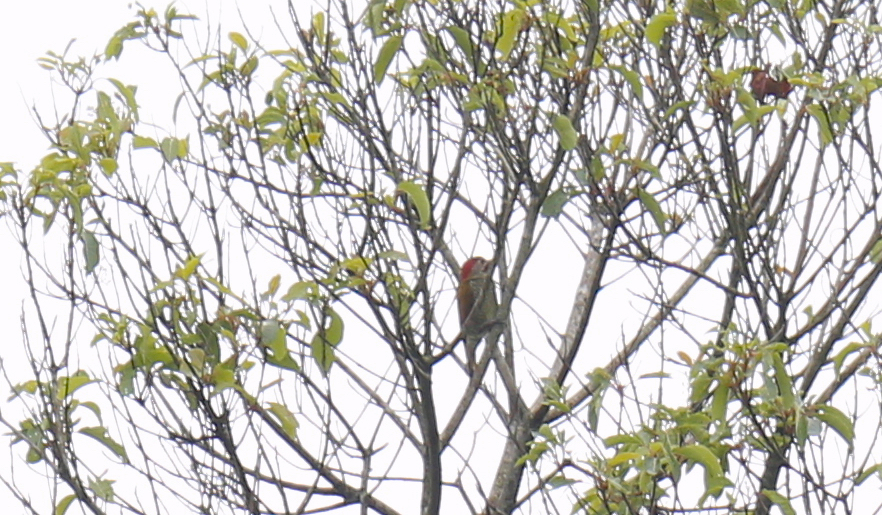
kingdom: Animalia
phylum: Chordata
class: Aves
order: Piciformes
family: Picidae
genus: Colaptes
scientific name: Colaptes rubiginosus
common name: Golden-olive woodpecker
